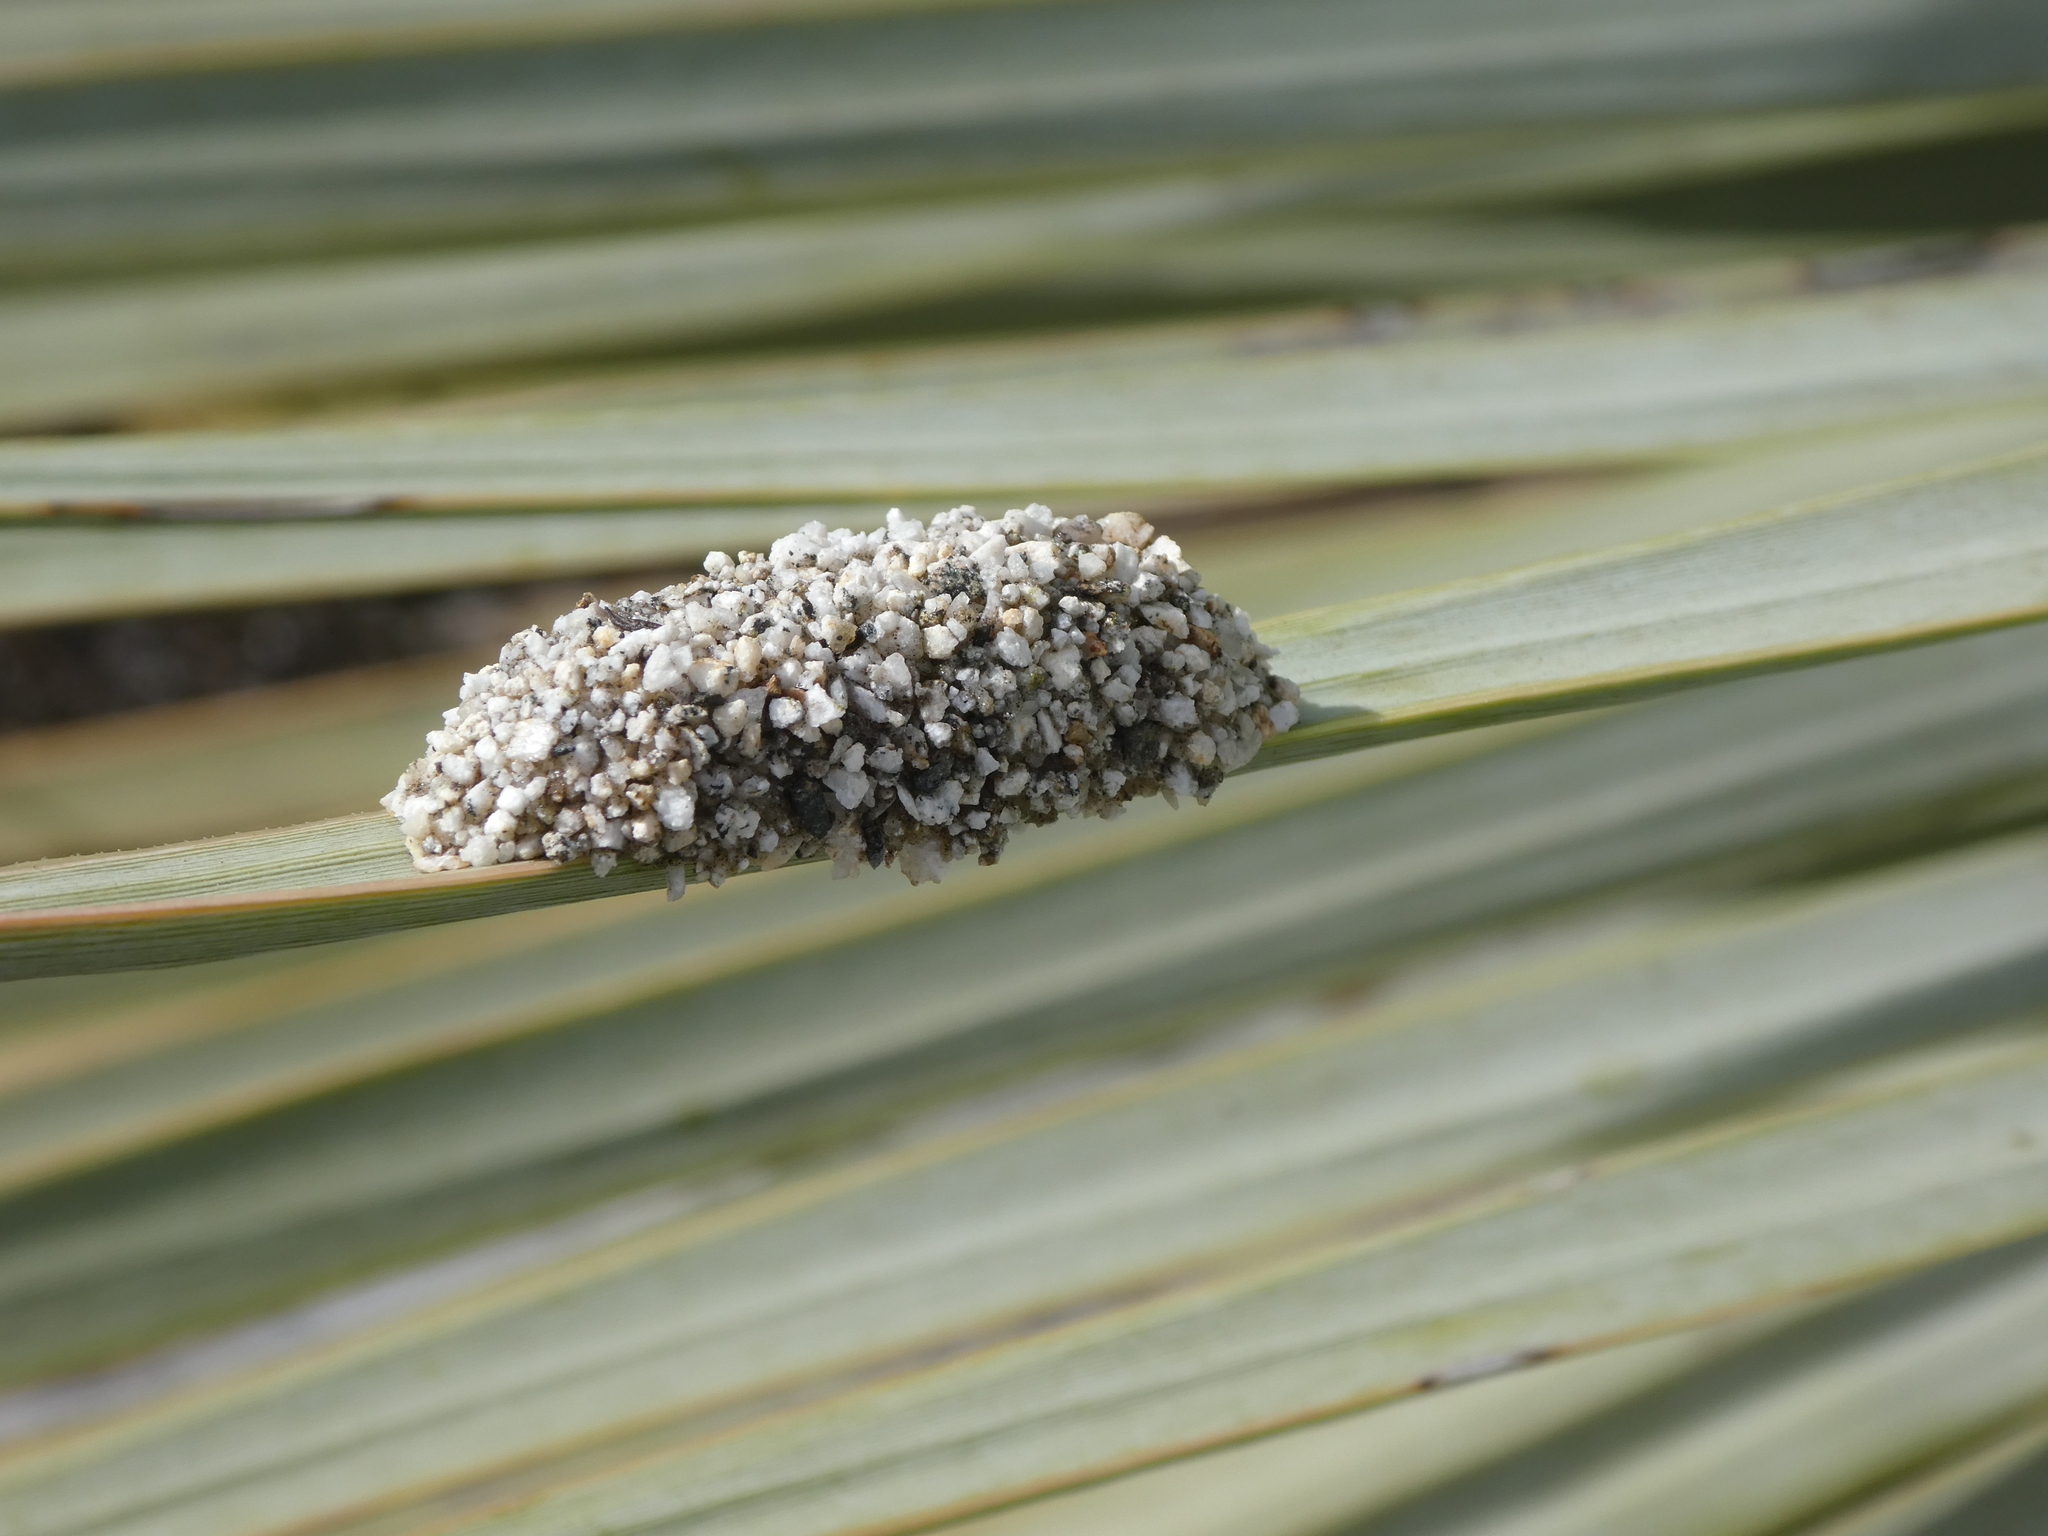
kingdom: Animalia
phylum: Arthropoda
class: Insecta
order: Hymenoptera
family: Megachilidae
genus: Dianthidium
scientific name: Dianthidium
